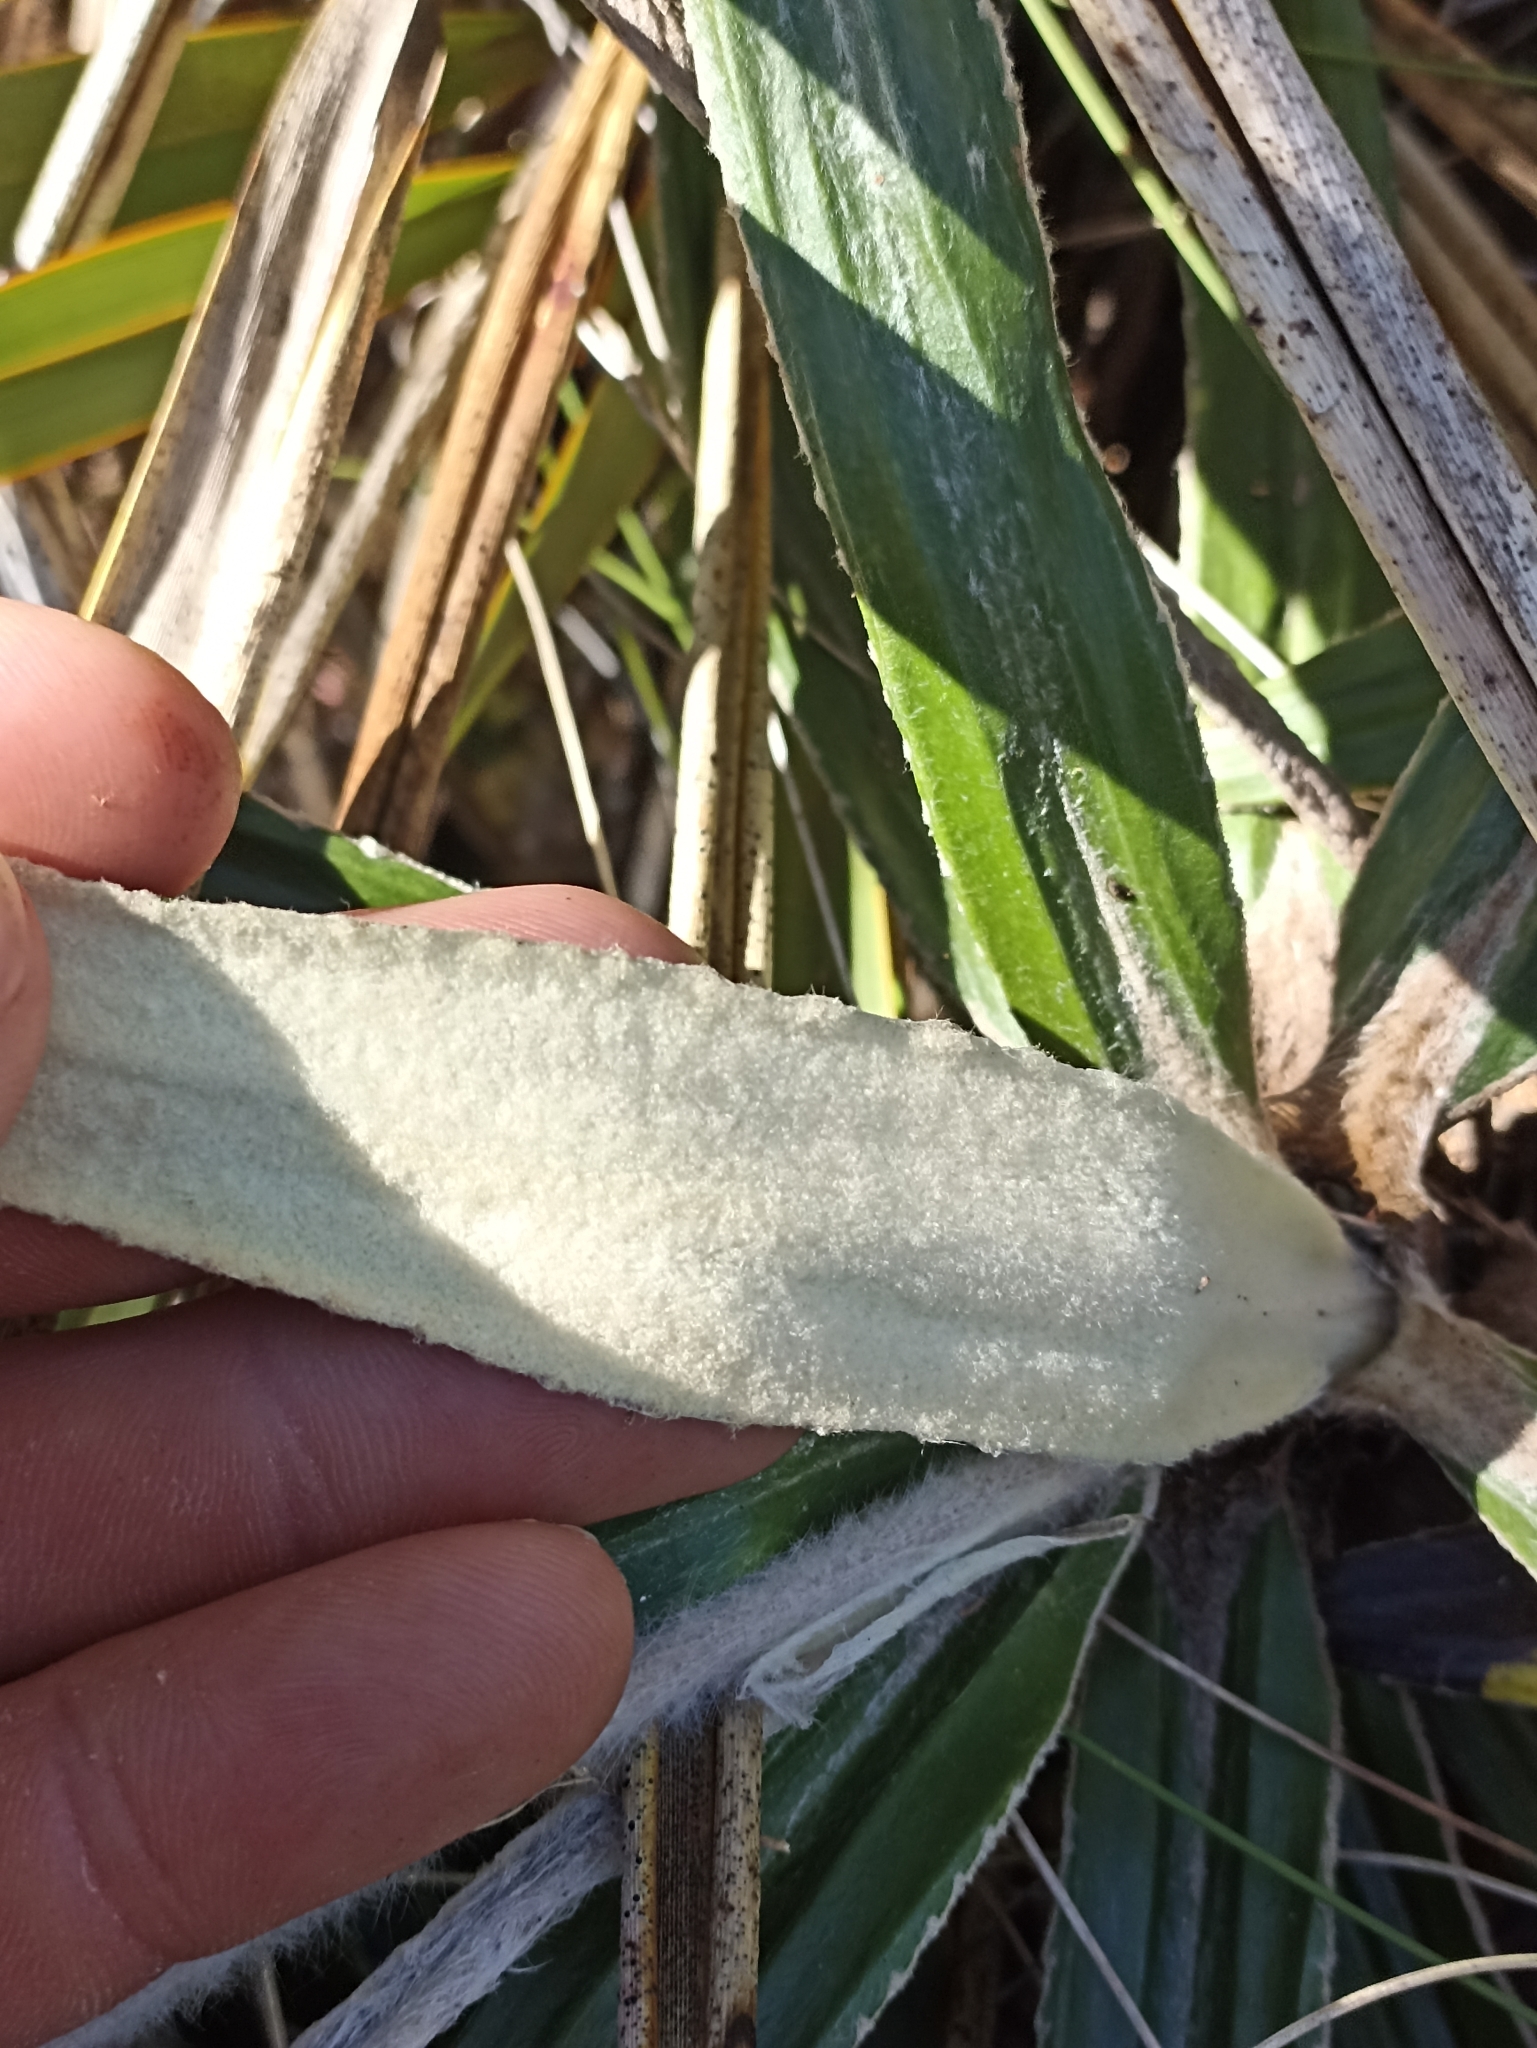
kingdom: Plantae
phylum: Tracheophyta
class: Magnoliopsida
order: Asterales
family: Asteraceae
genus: Celmisia
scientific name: Celmisia spectabilis
